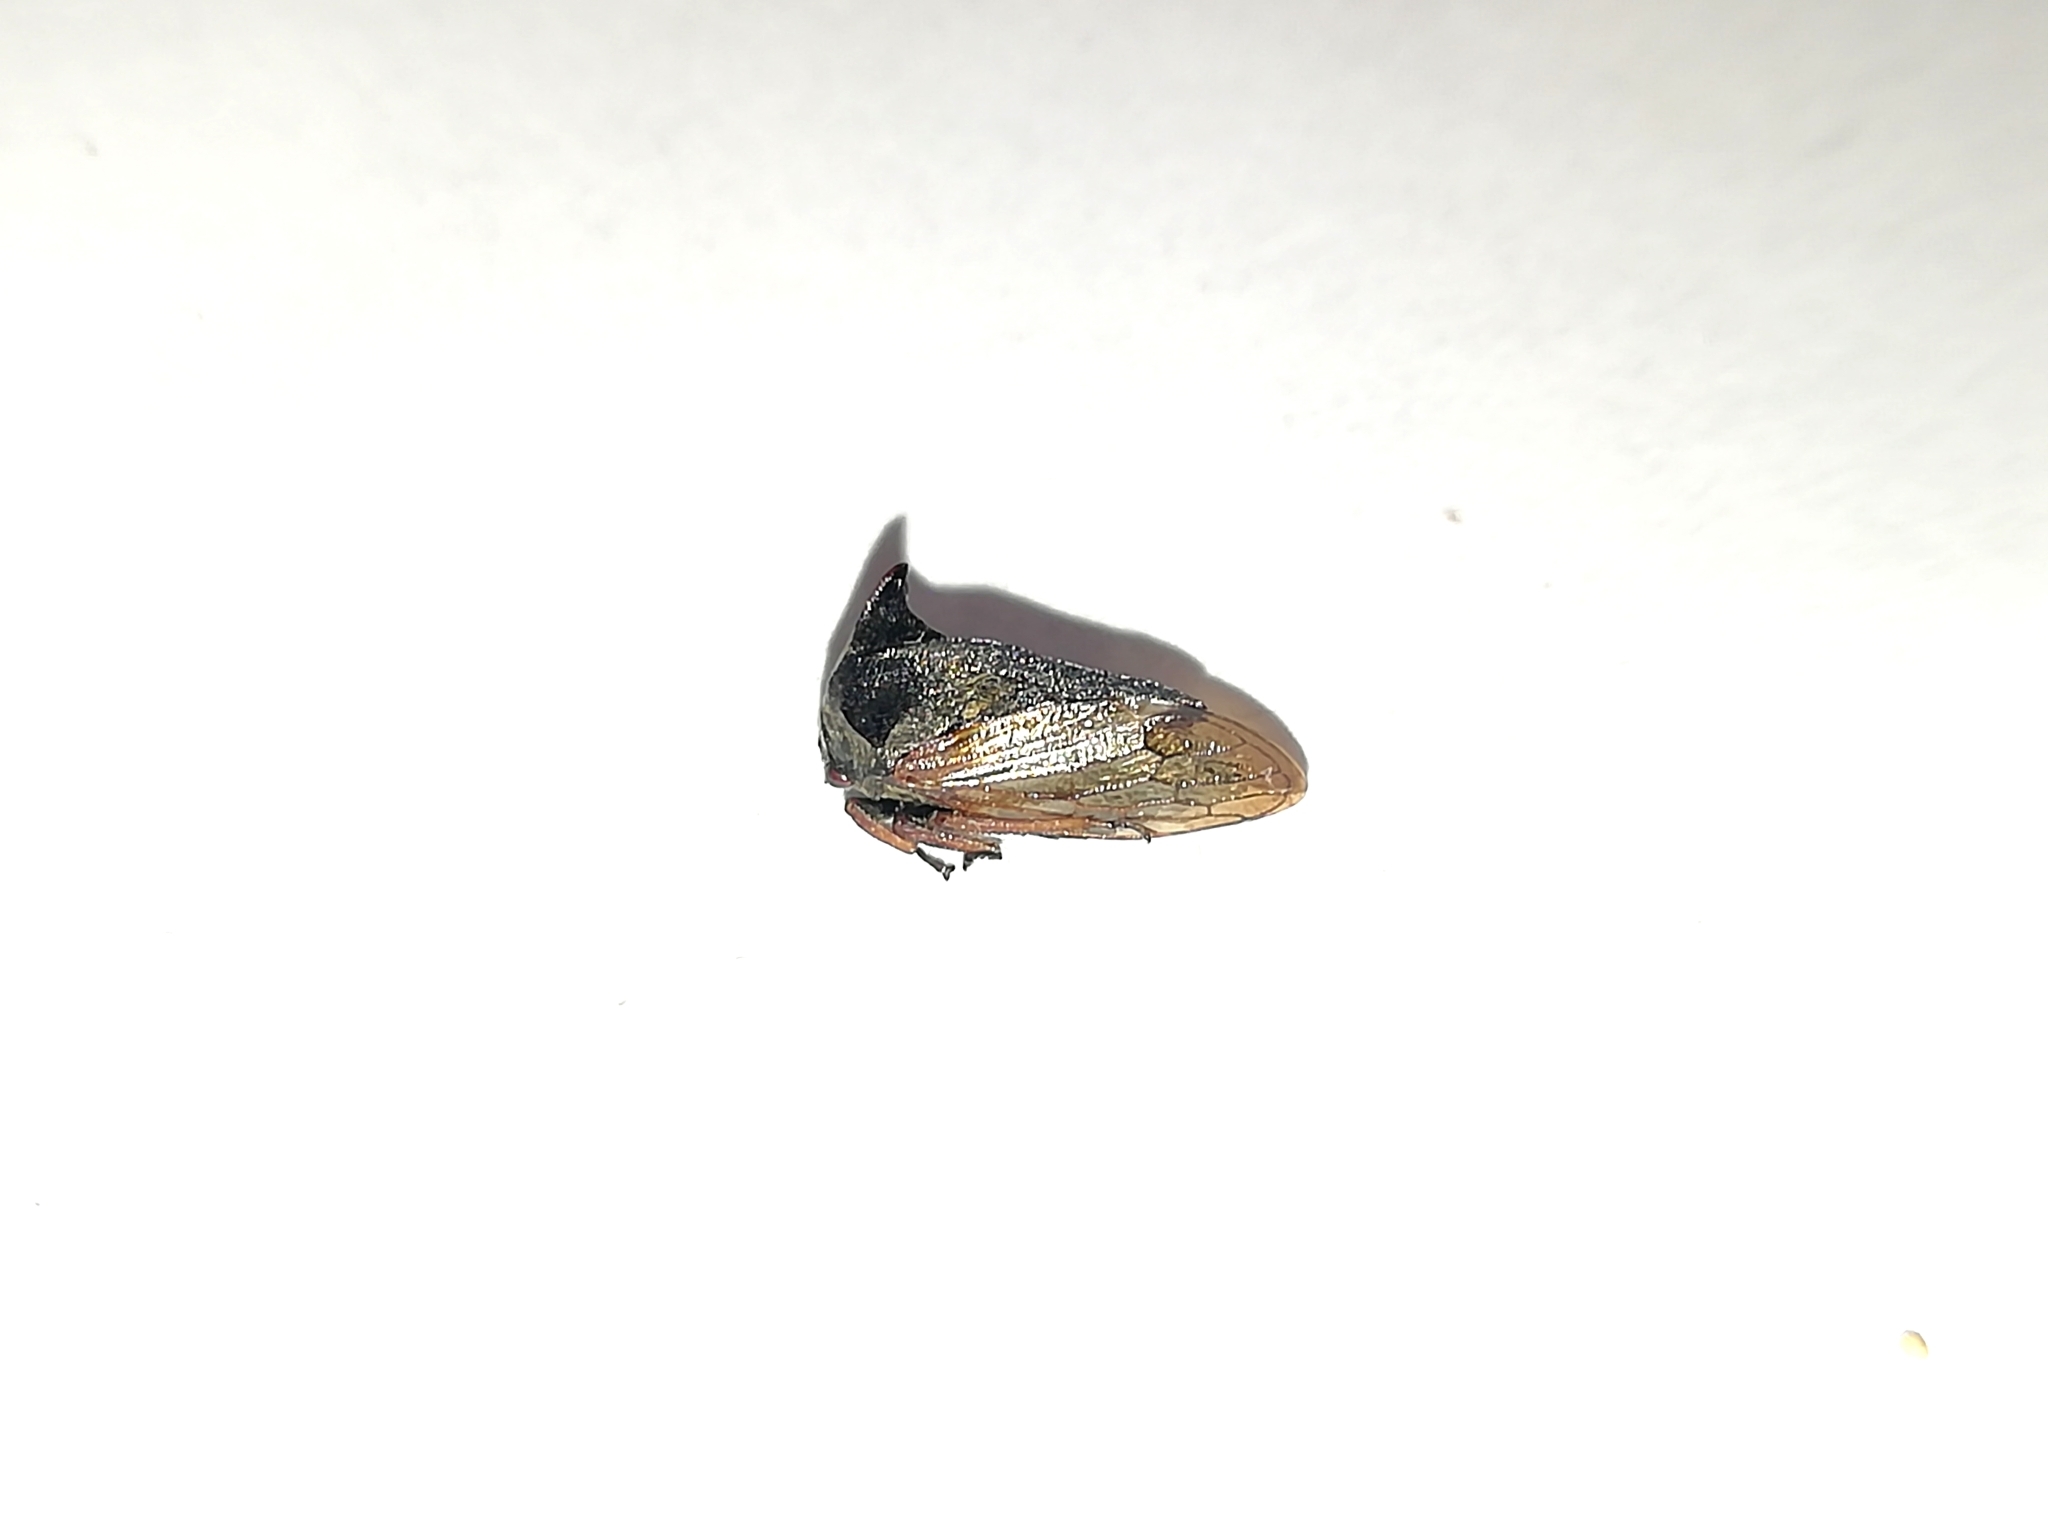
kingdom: Animalia
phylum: Arthropoda
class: Insecta
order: Hemiptera
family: Membracidae
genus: Centrotus
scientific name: Centrotus cornuta
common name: Treehopper
